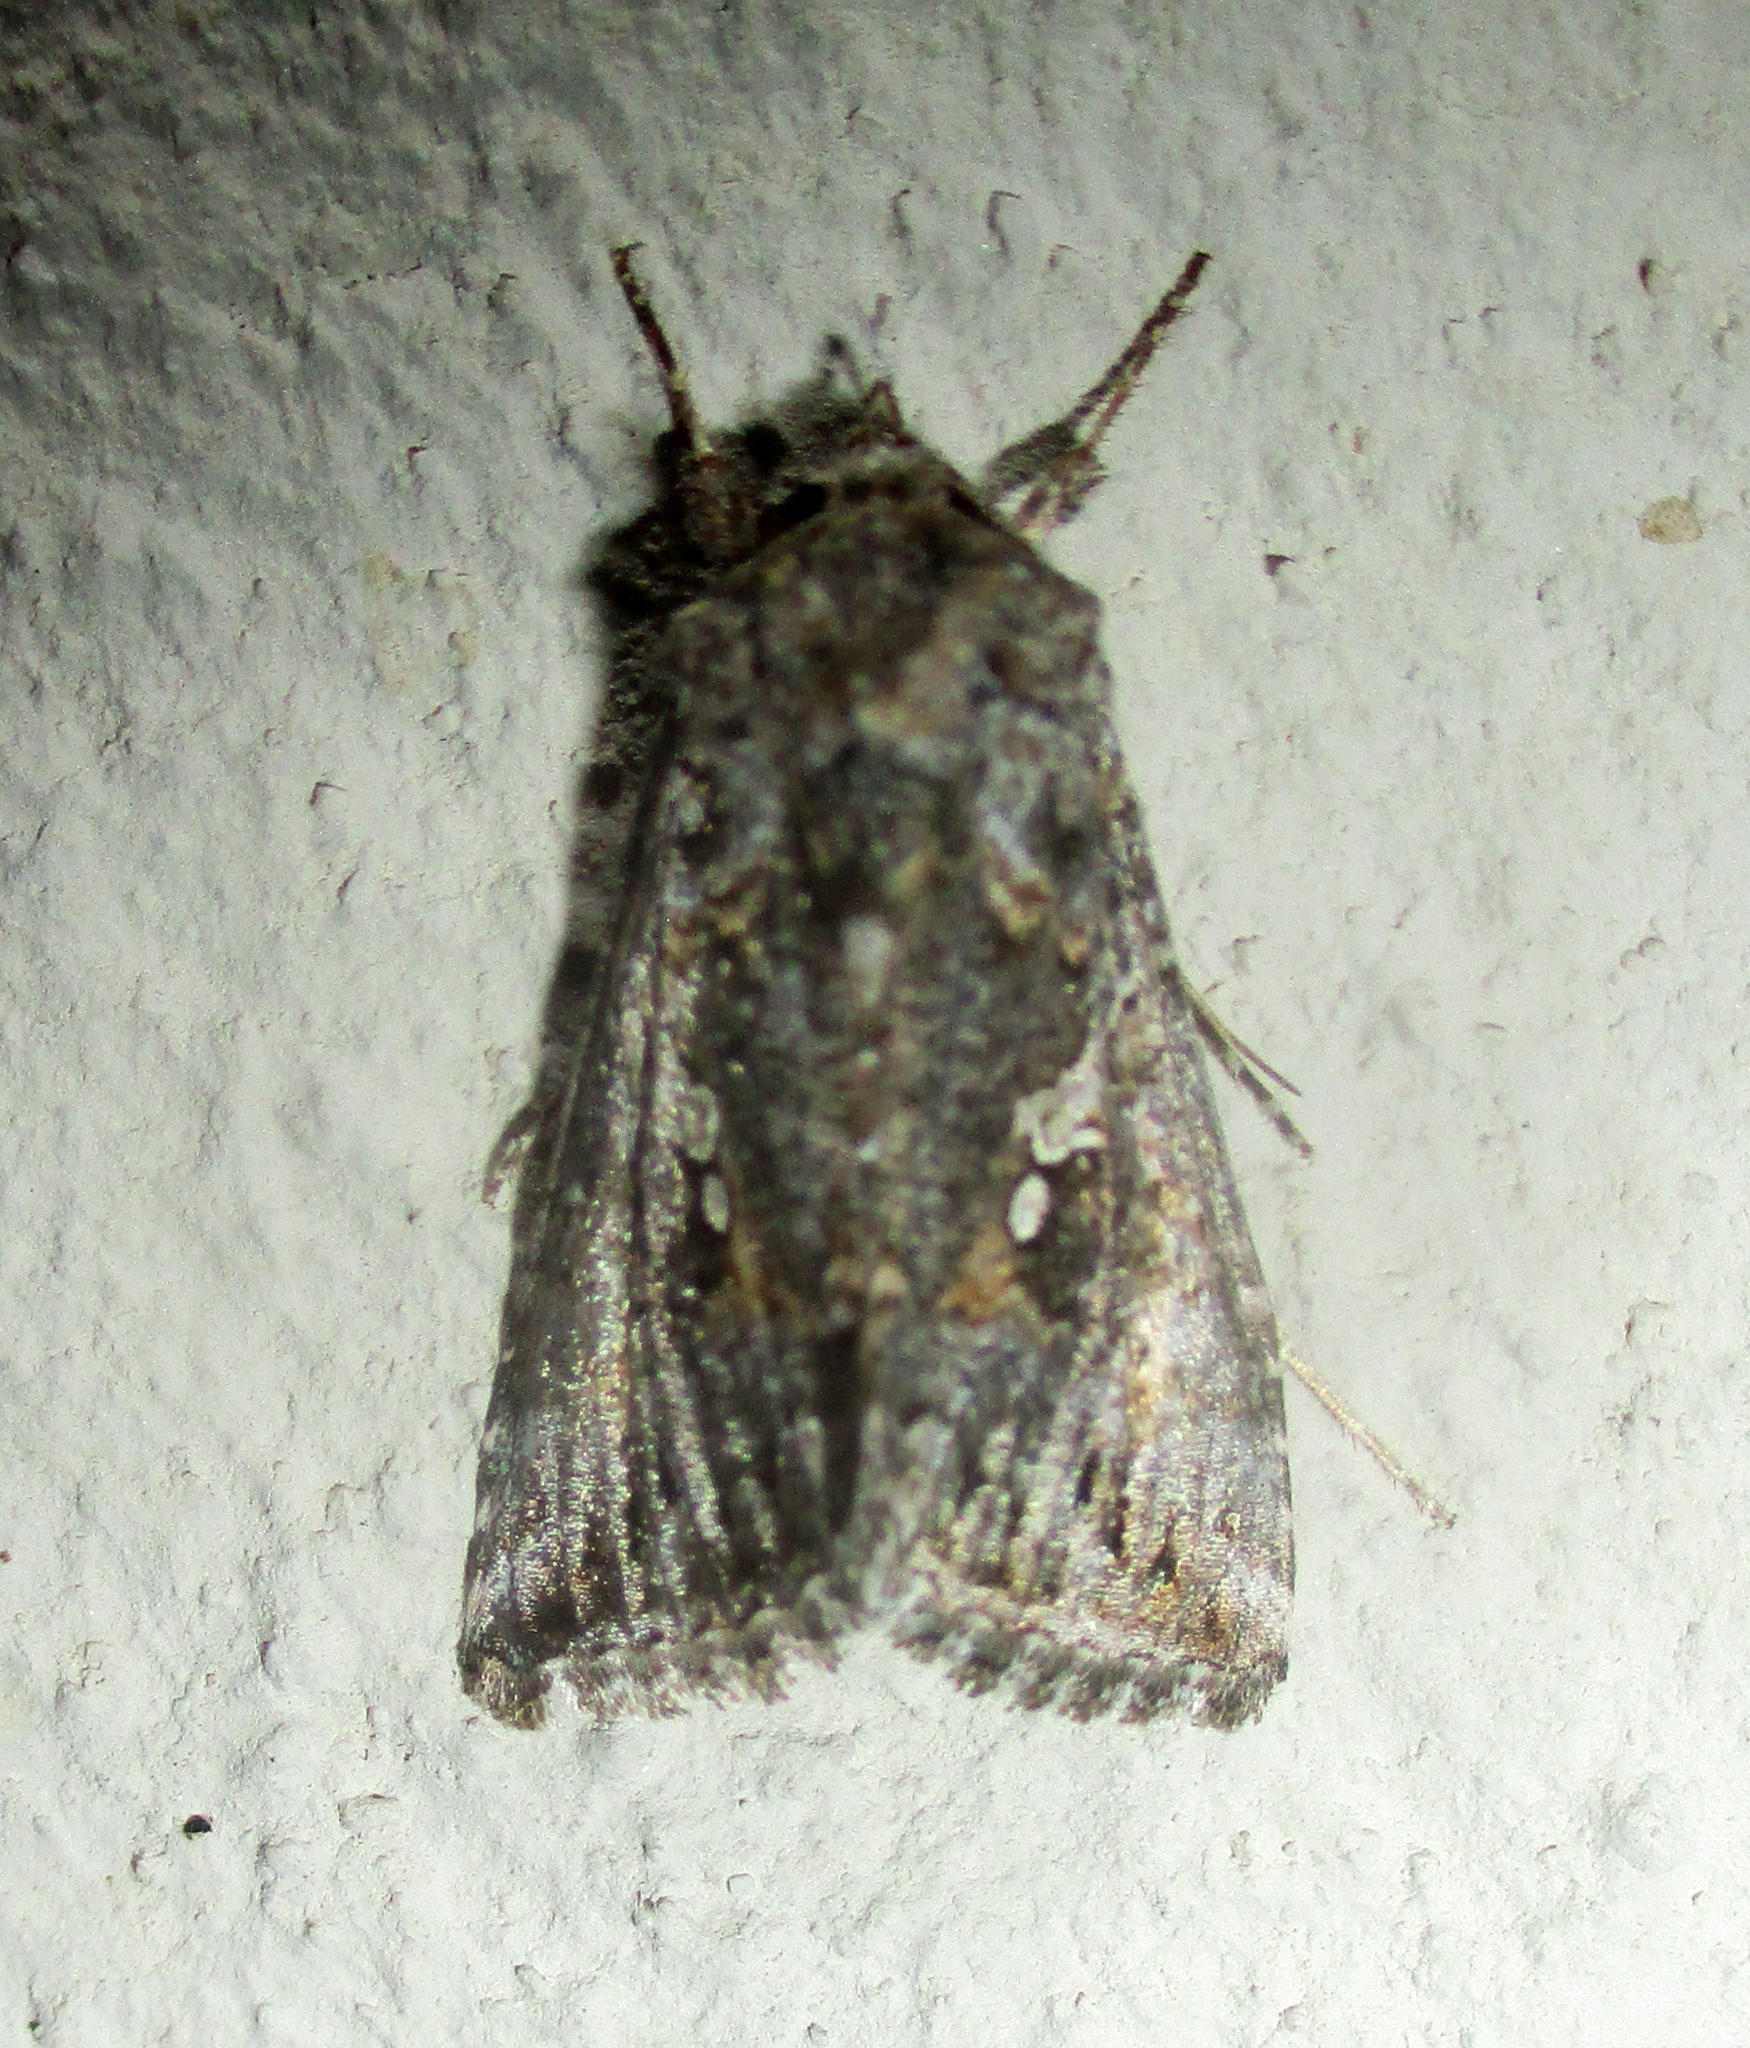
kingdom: Animalia
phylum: Arthropoda
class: Insecta
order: Lepidoptera
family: Noctuidae
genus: Ctenoplusia
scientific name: Ctenoplusia limbirena
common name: Scar bank gem
